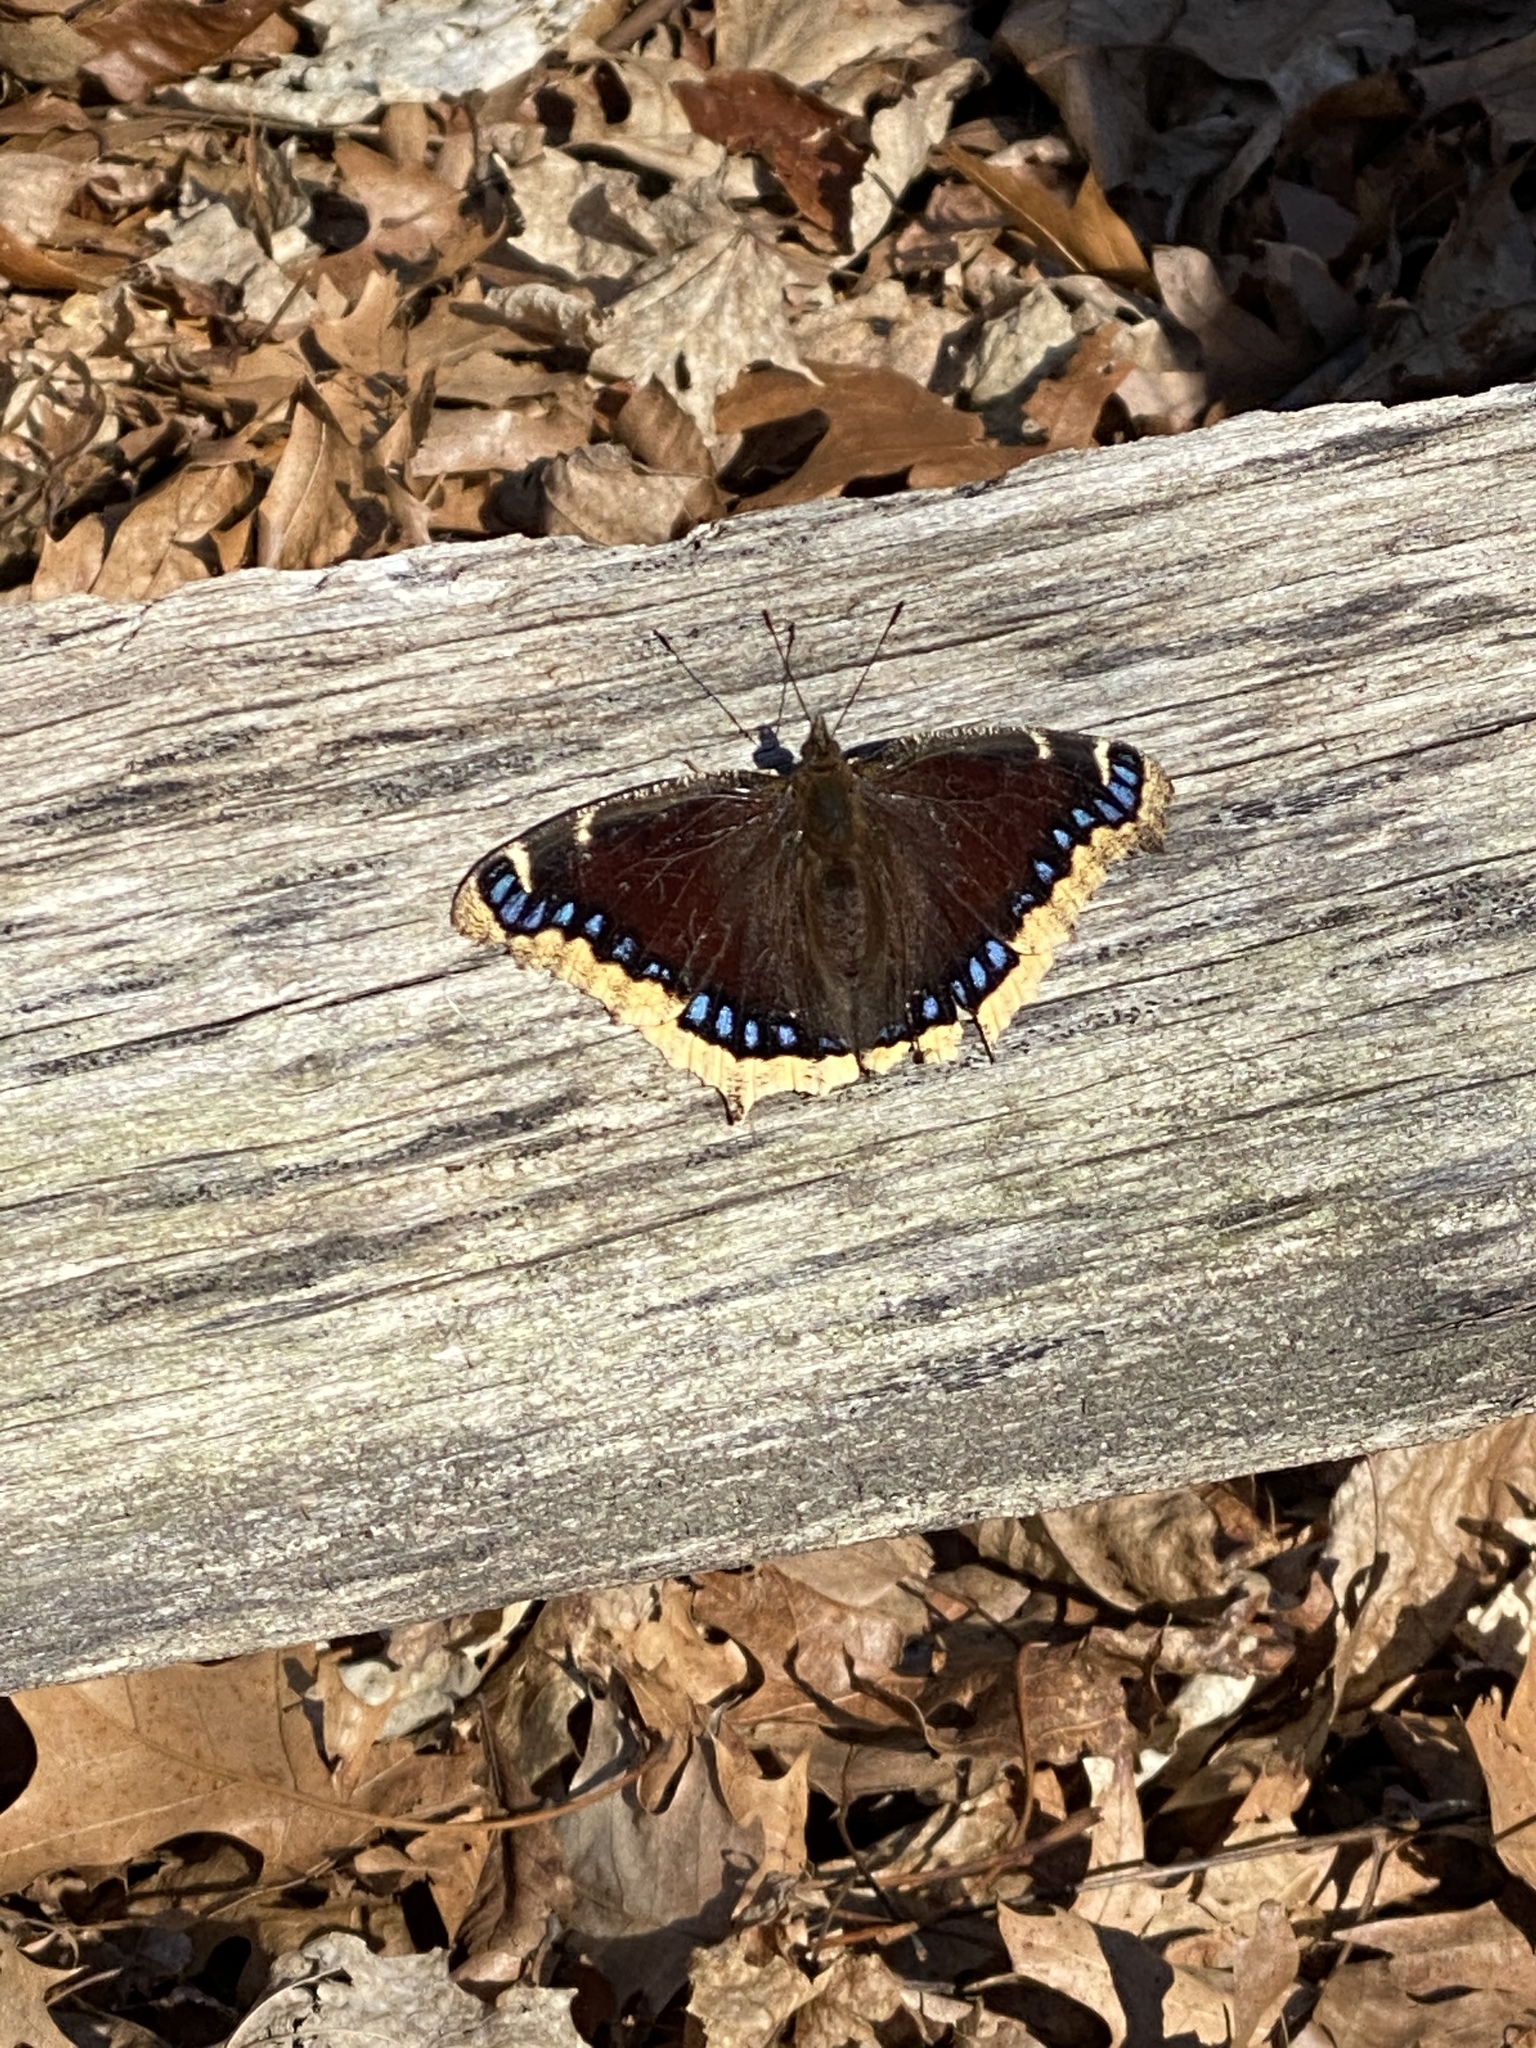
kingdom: Animalia
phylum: Arthropoda
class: Insecta
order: Lepidoptera
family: Nymphalidae
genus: Nymphalis
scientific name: Nymphalis antiopa
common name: Camberwell beauty
